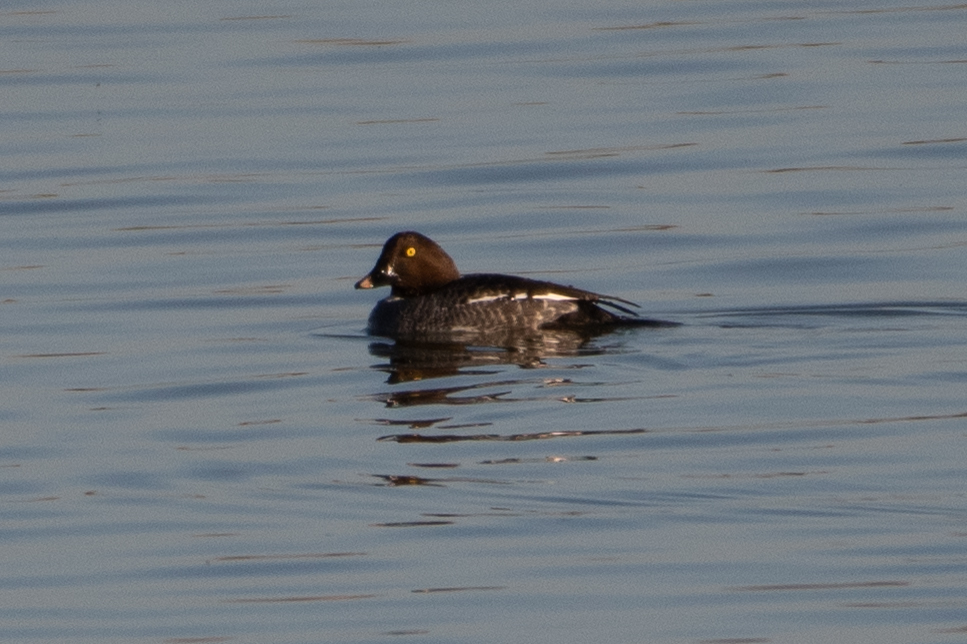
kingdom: Animalia
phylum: Chordata
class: Aves
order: Anseriformes
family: Anatidae
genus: Bucephala
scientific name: Bucephala clangula
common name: Common goldeneye
